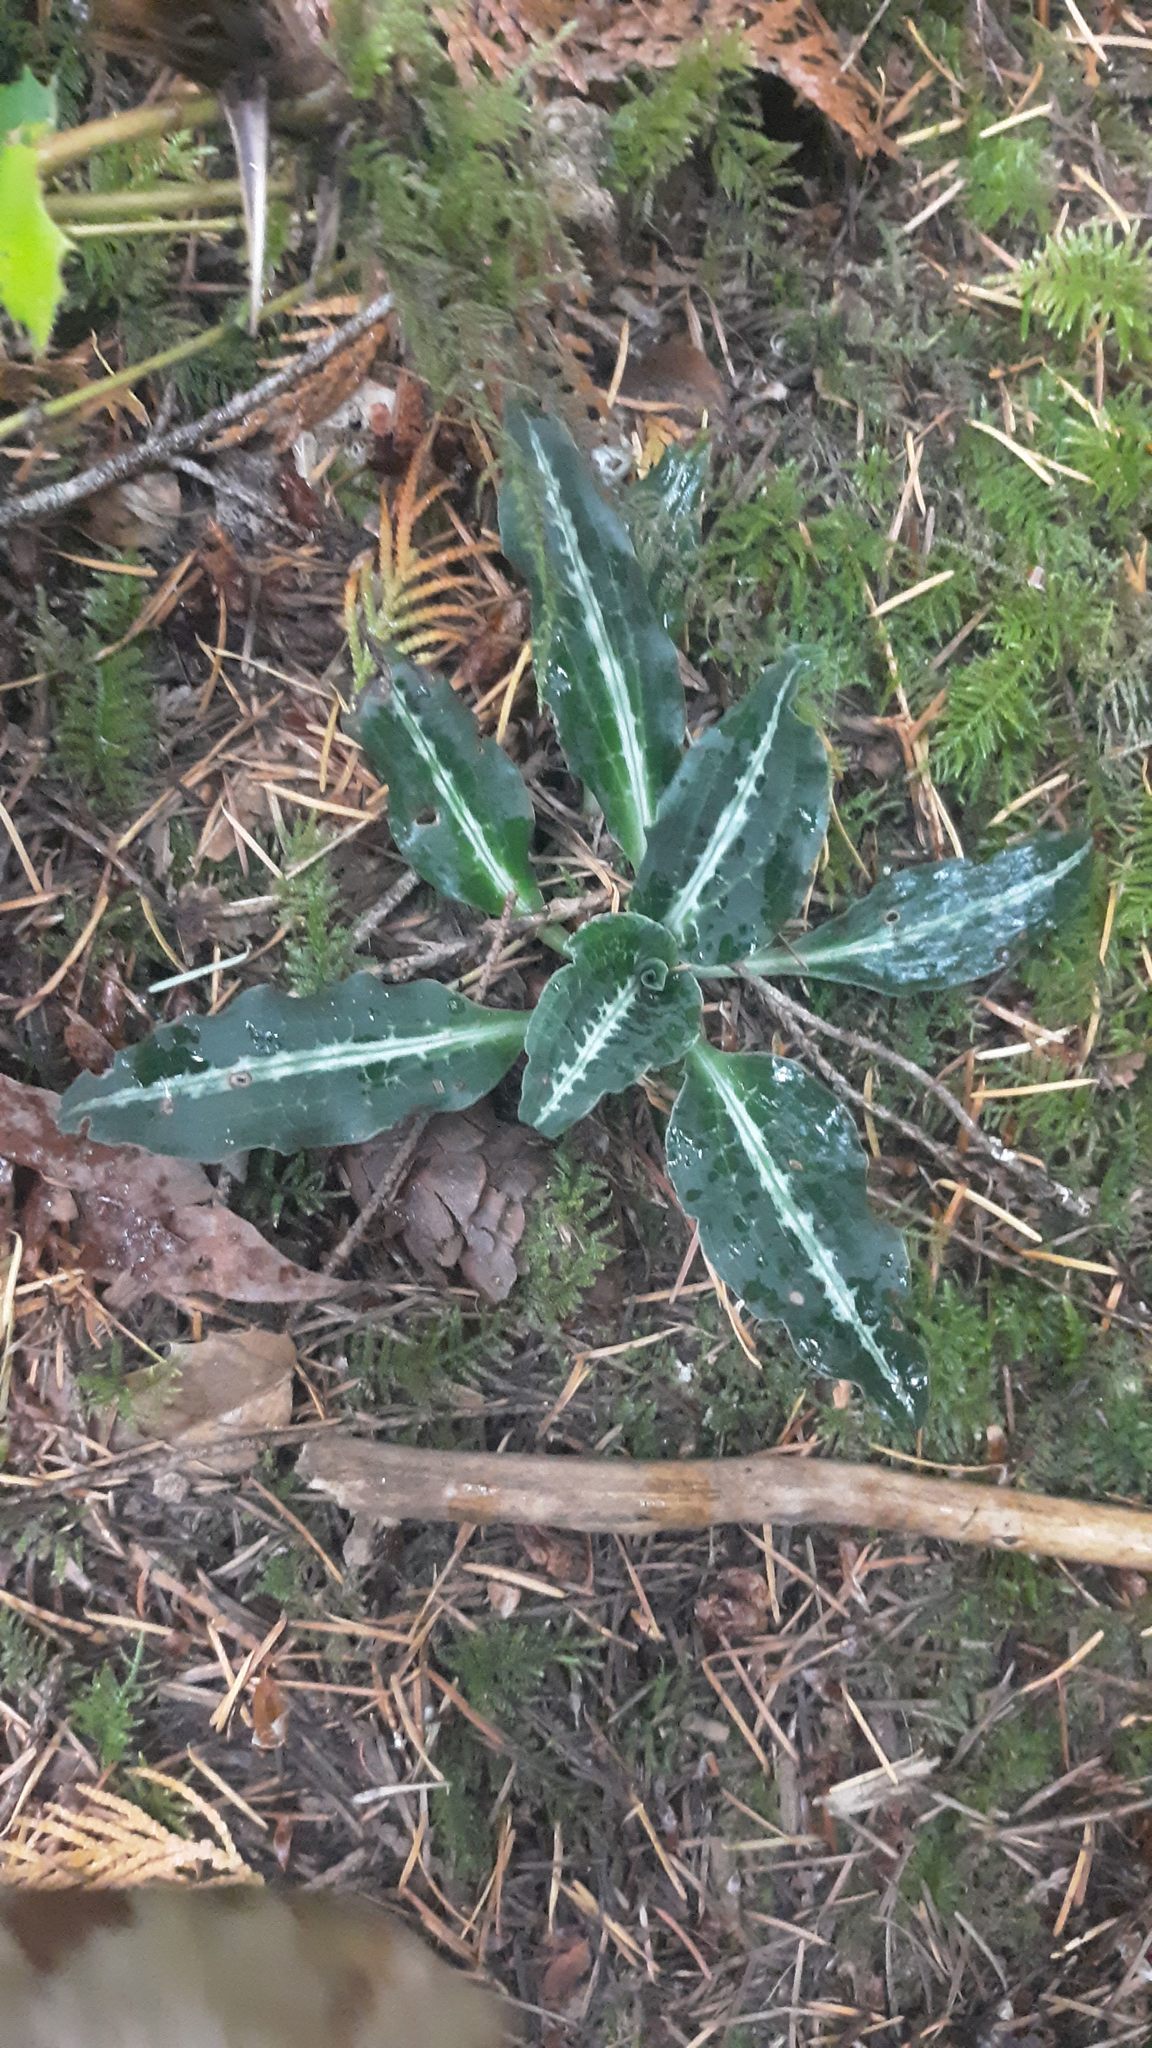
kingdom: Plantae
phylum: Tracheophyta
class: Liliopsida
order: Asparagales
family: Orchidaceae
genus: Goodyera
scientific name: Goodyera oblongifolia
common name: Giant rattlesnake-plantain
